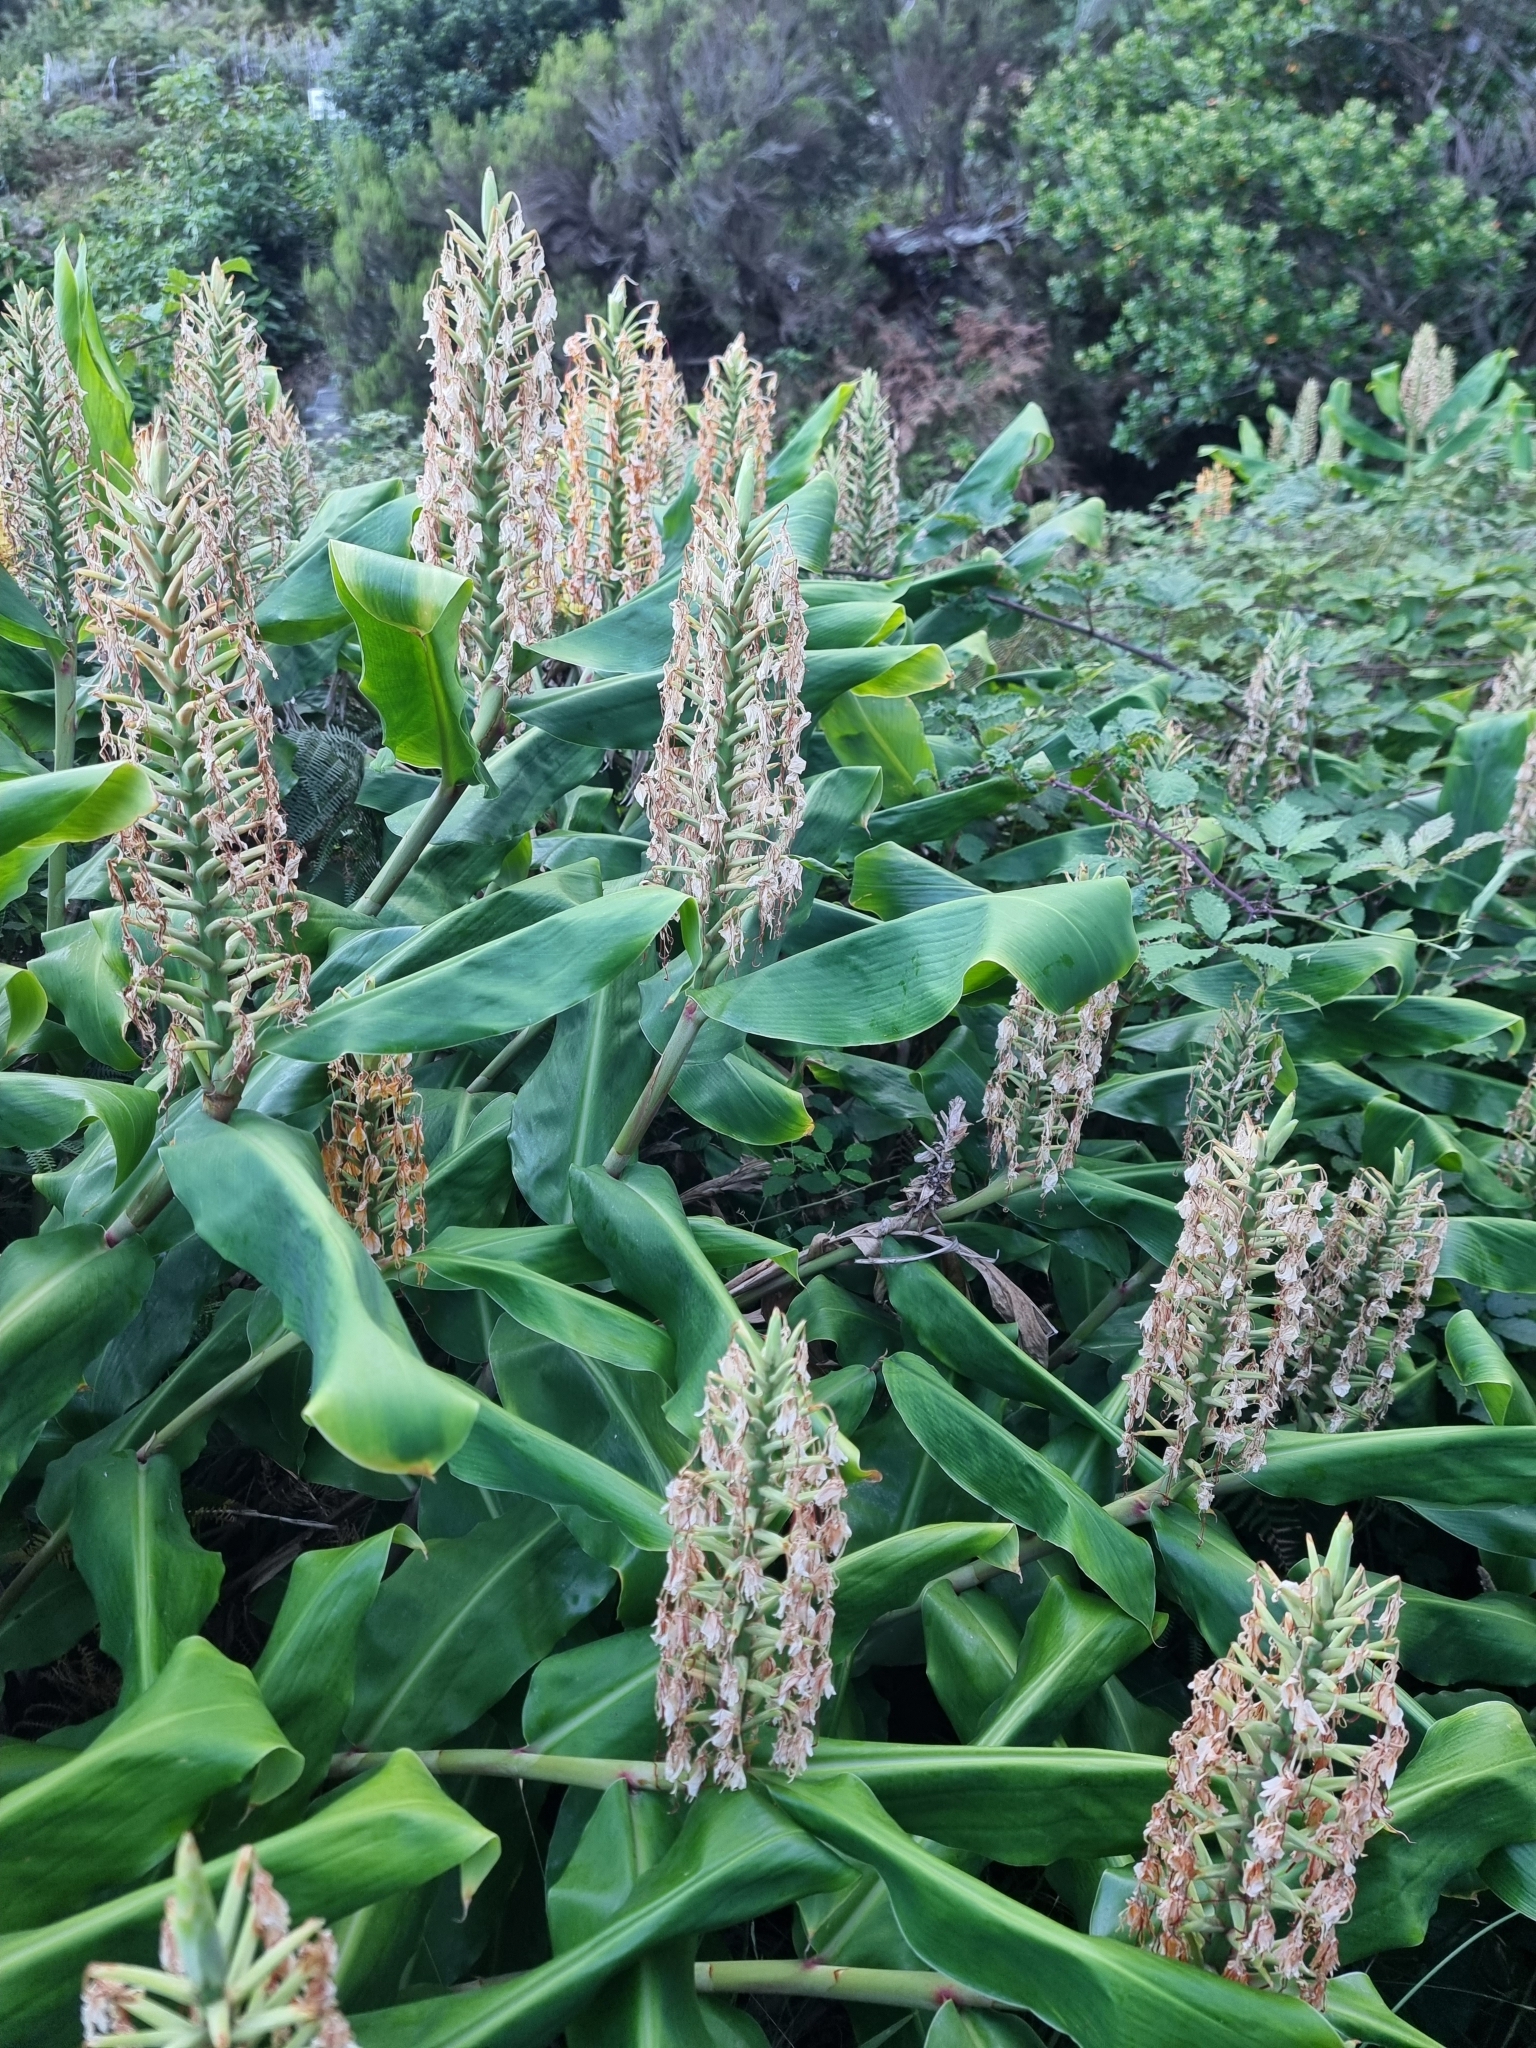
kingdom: Plantae
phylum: Tracheophyta
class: Liliopsida
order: Zingiberales
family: Zingiberaceae
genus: Hedychium
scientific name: Hedychium gardnerianum
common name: Himalayan ginger
